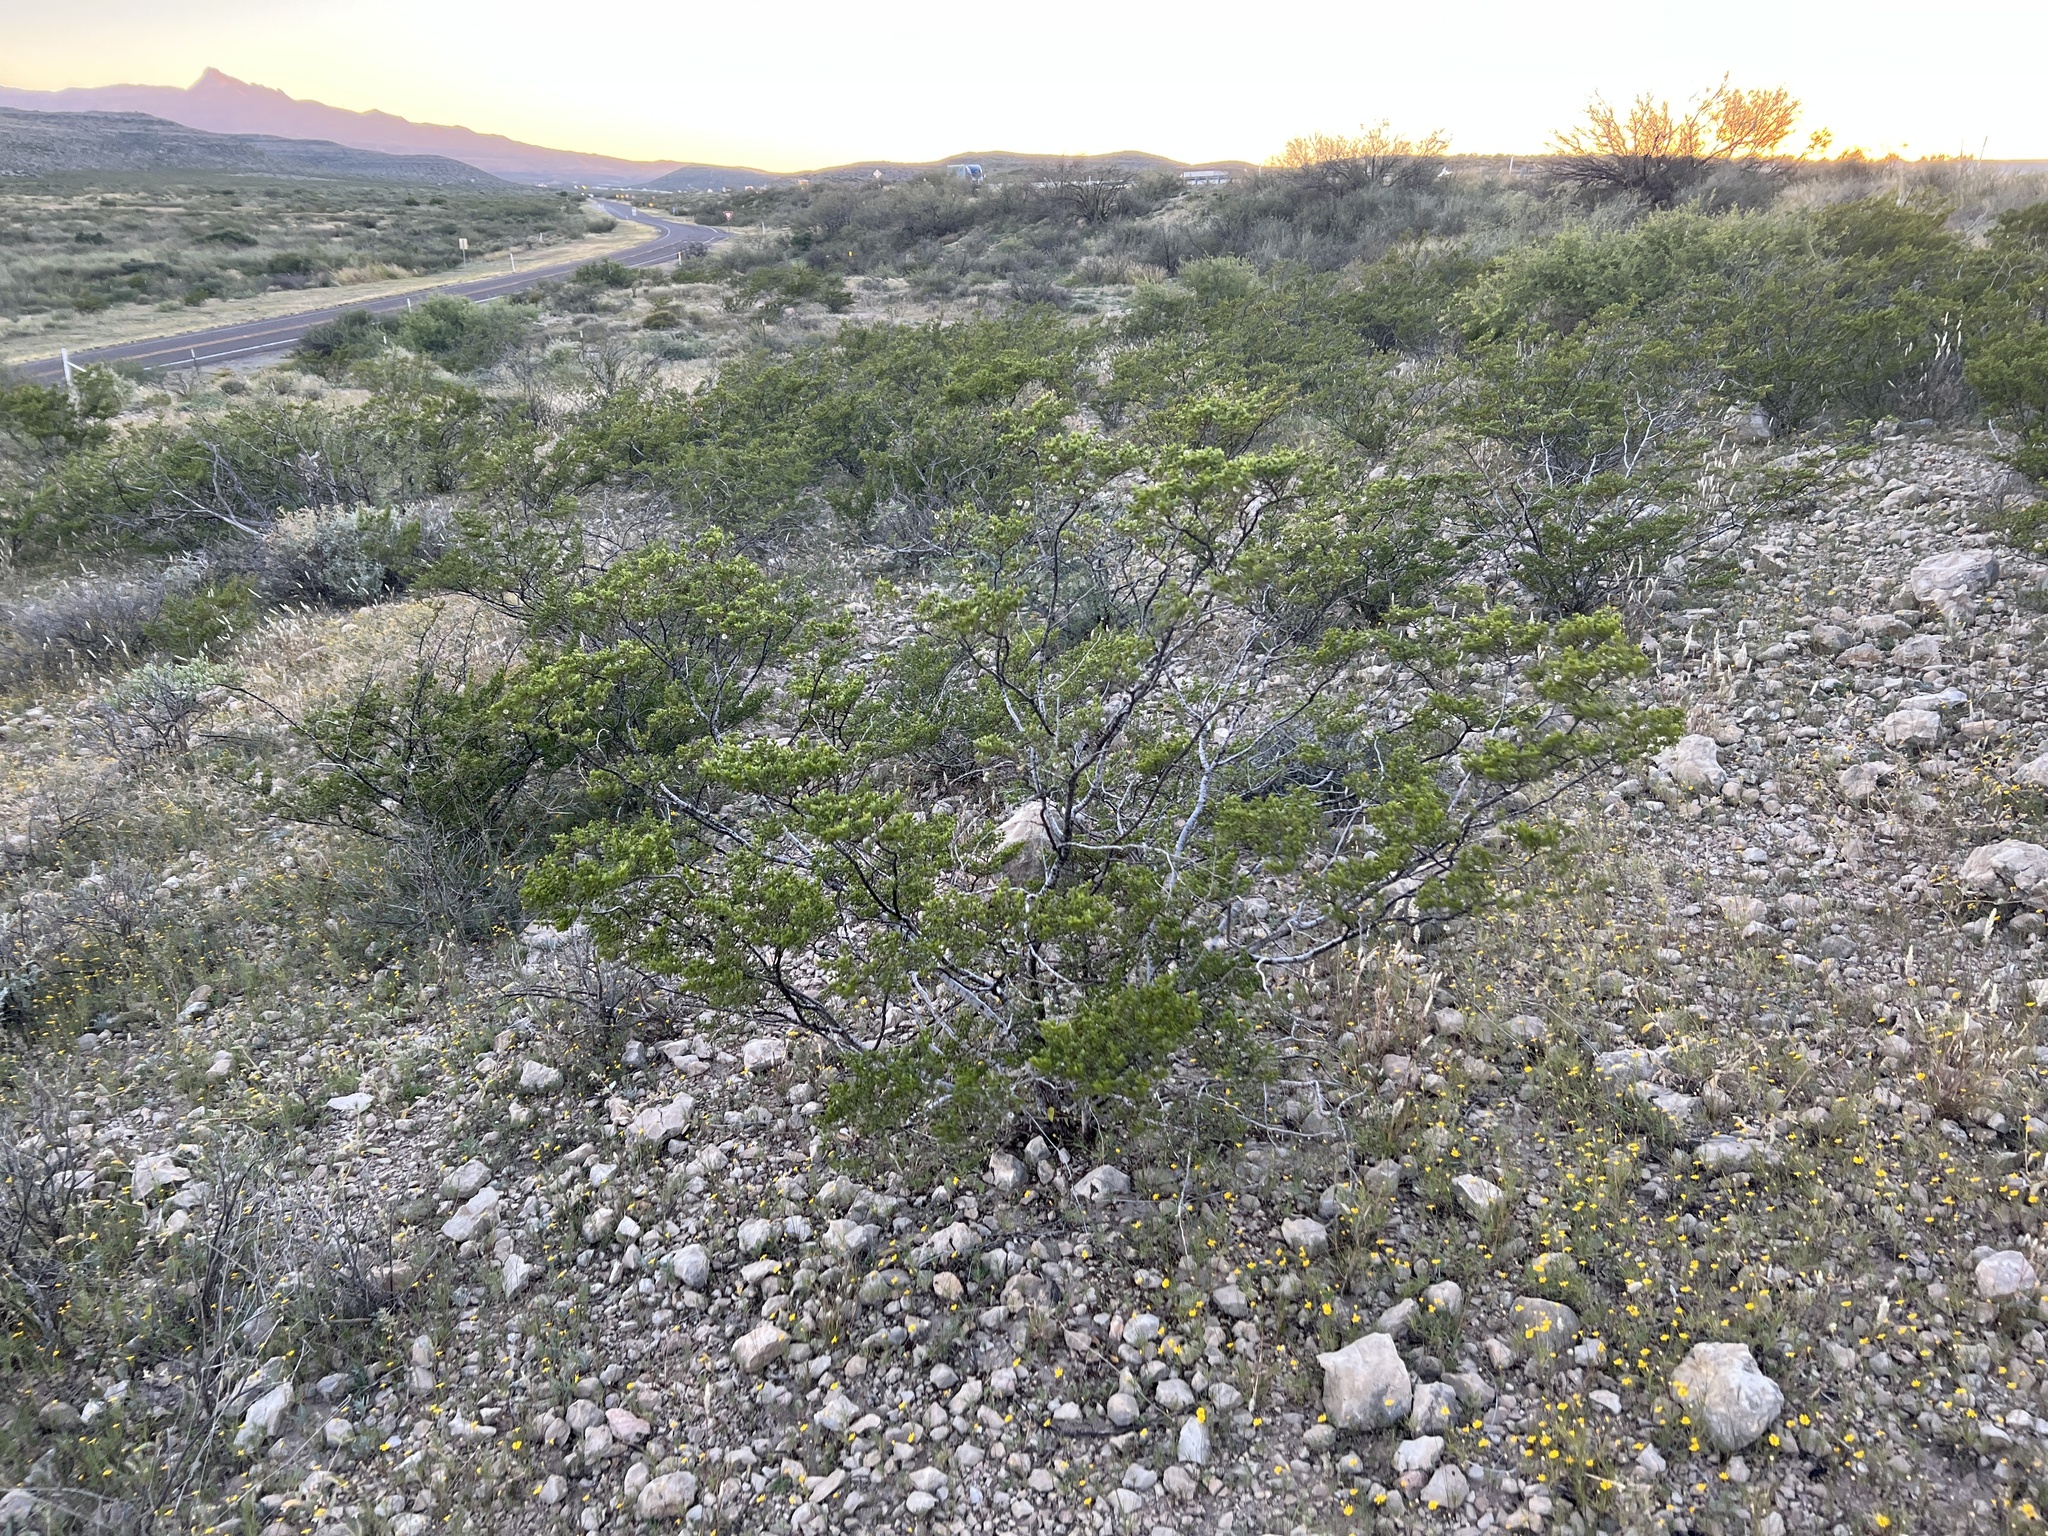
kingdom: Plantae
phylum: Tracheophyta
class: Magnoliopsida
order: Zygophyllales
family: Zygophyllaceae
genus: Larrea
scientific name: Larrea tridentata
